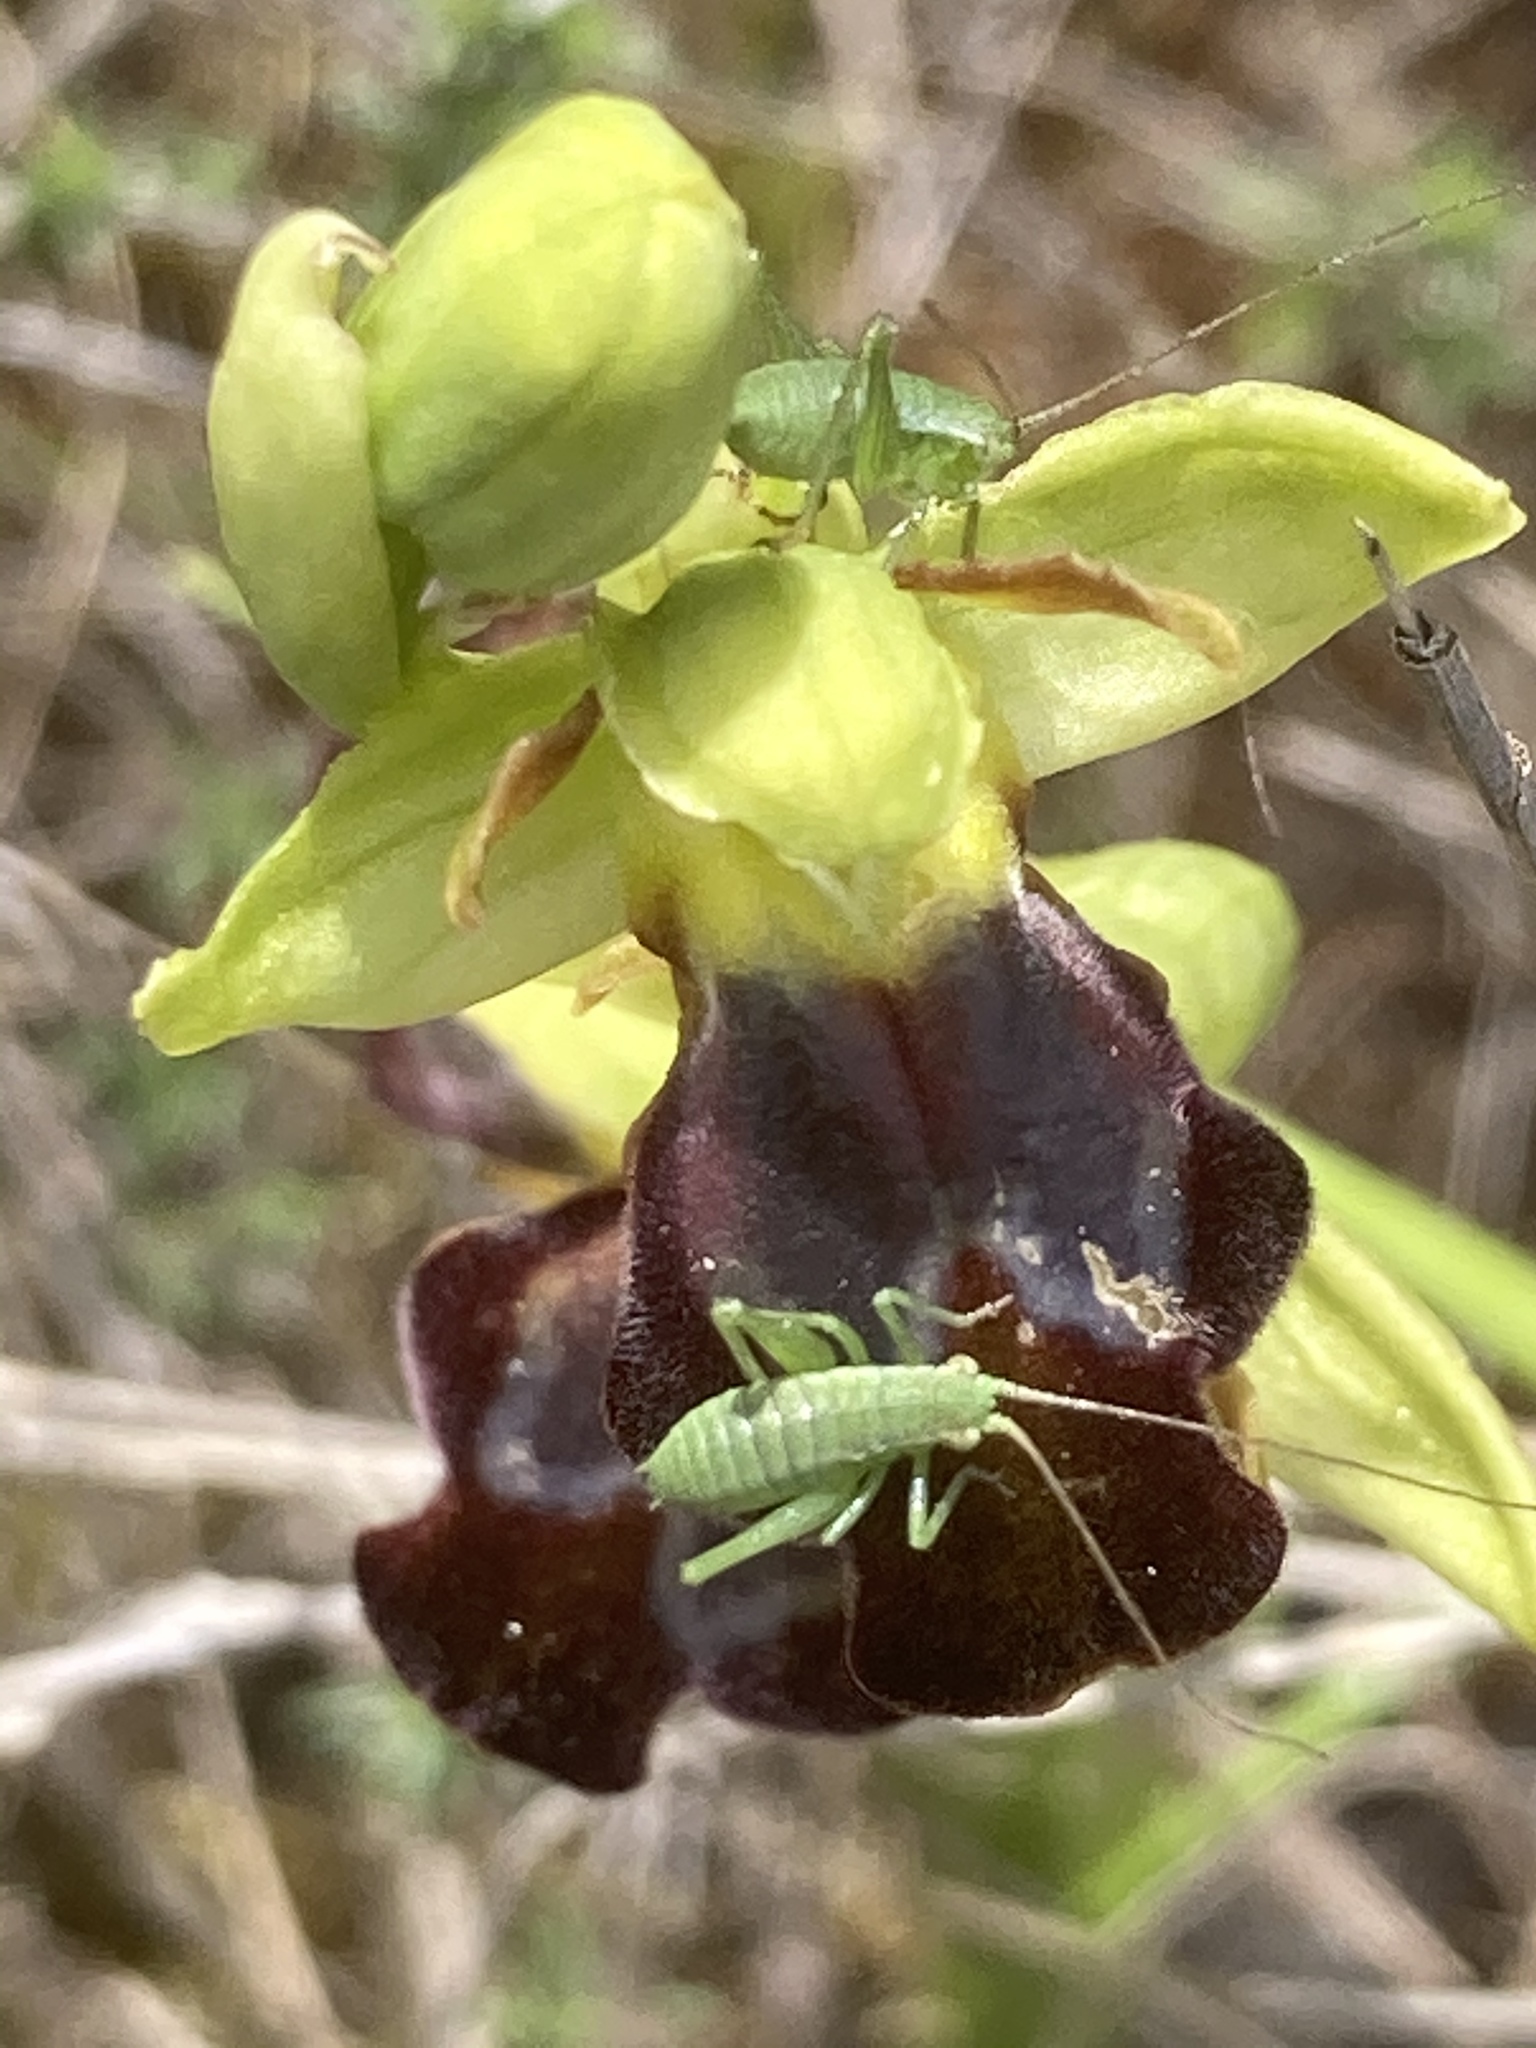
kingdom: Plantae
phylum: Tracheophyta
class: Liliopsida
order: Asparagales
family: Orchidaceae
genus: Ophrys
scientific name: Ophrys fusca
